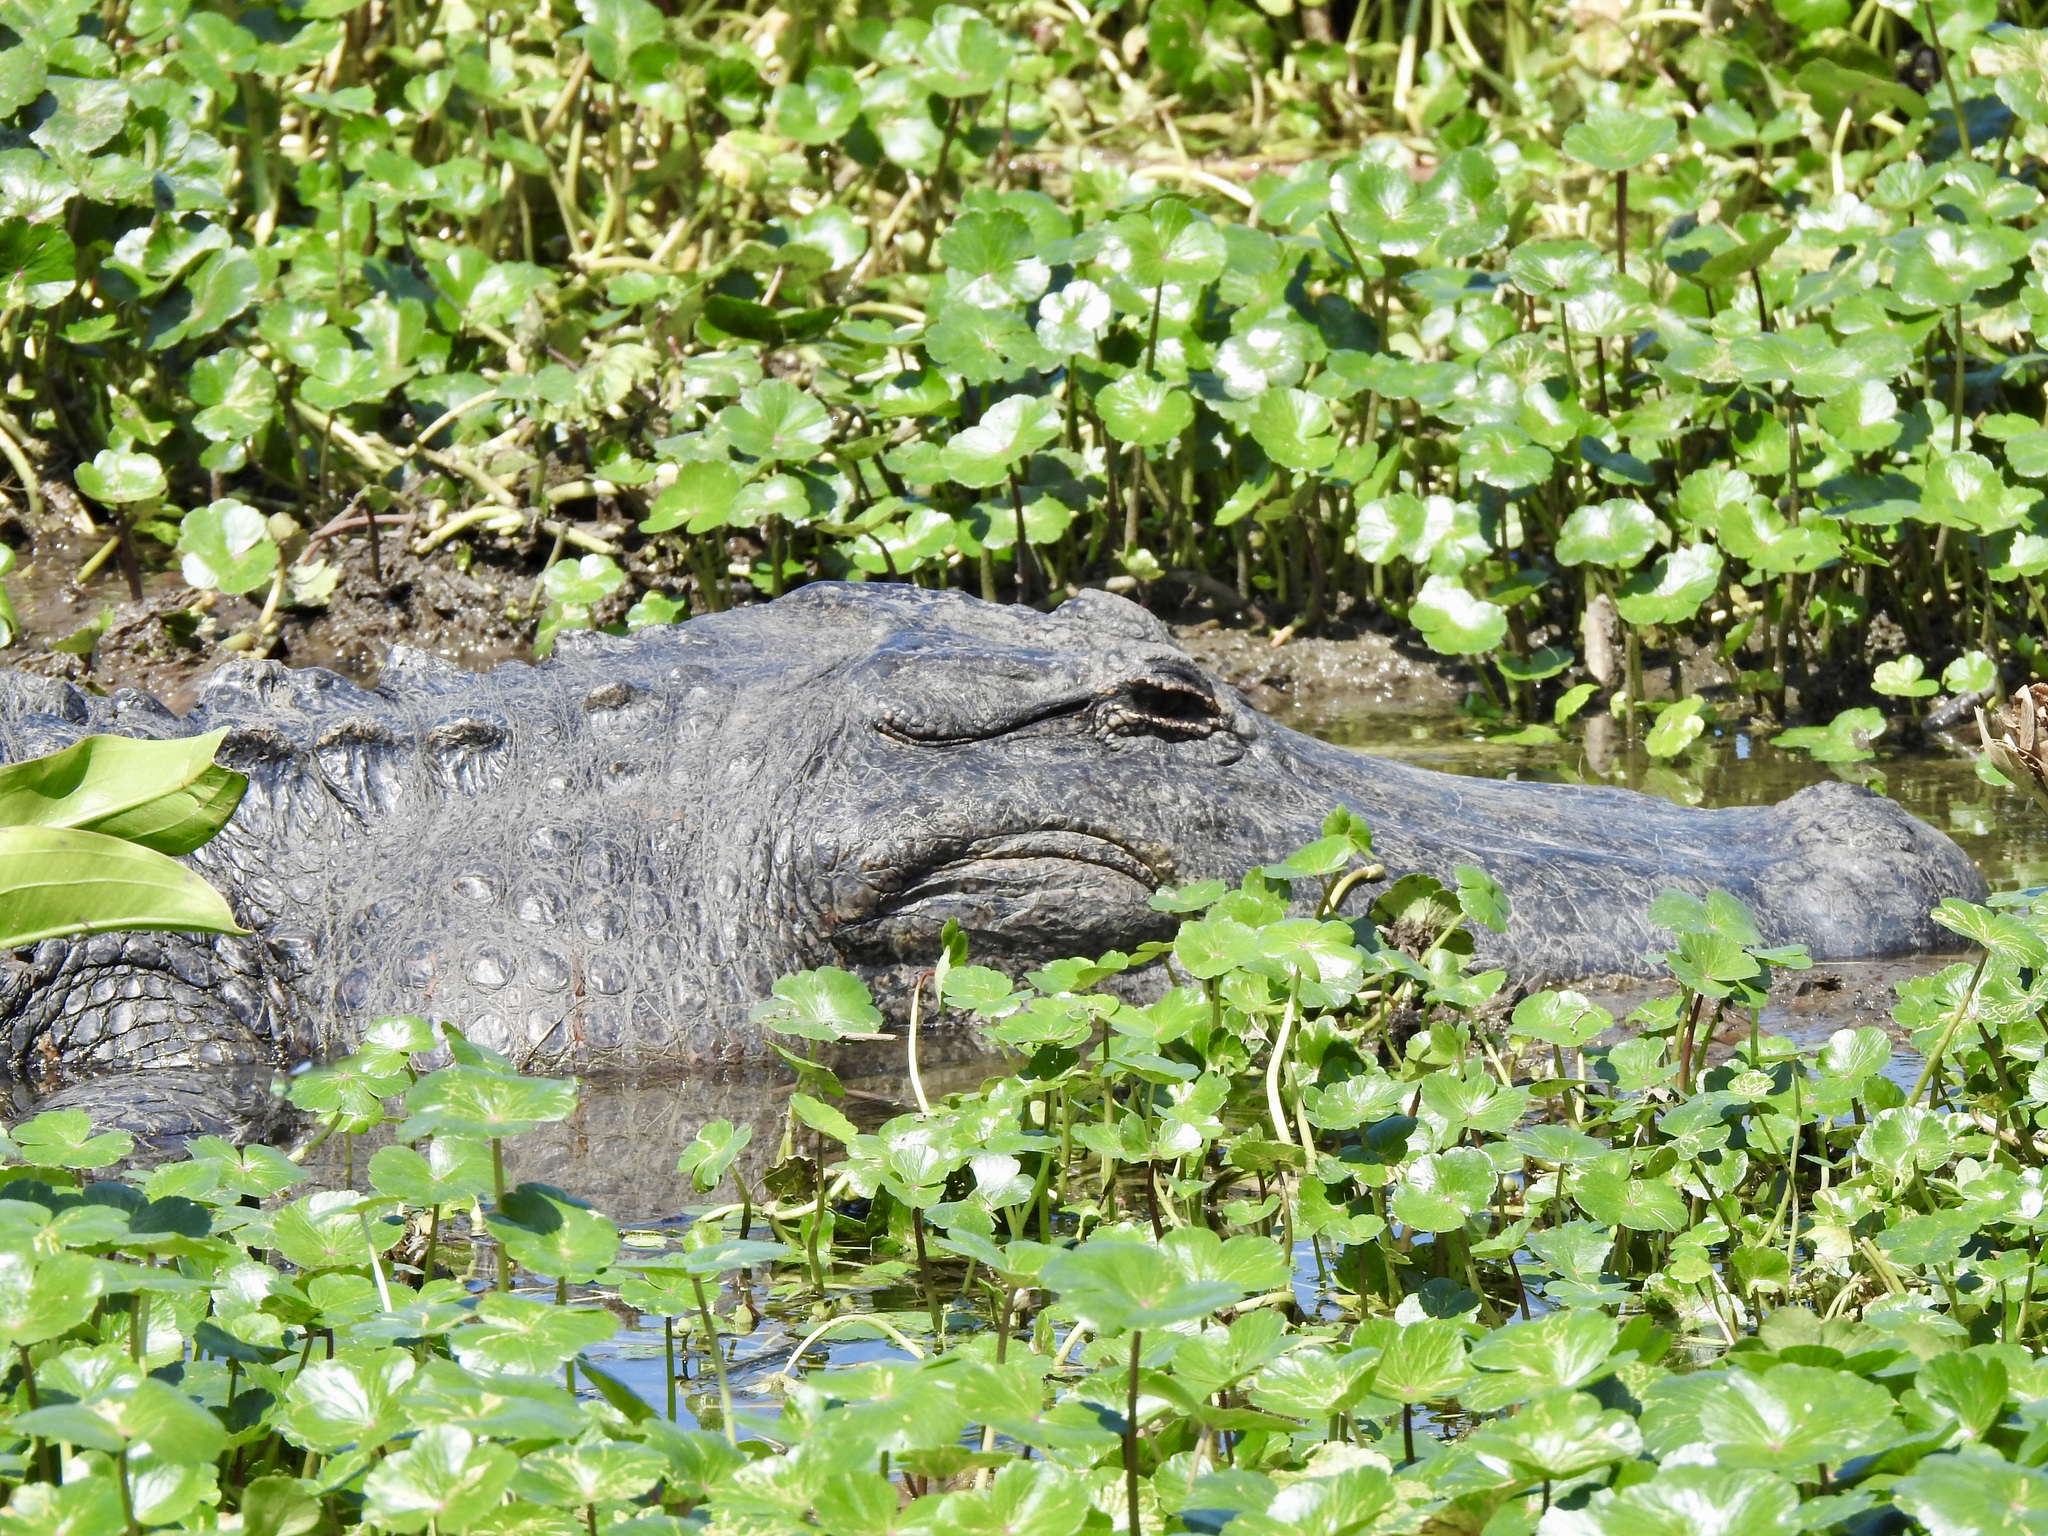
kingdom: Animalia
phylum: Chordata
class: Crocodylia
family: Alligatoridae
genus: Alligator
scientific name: Alligator mississippiensis
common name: American alligator
